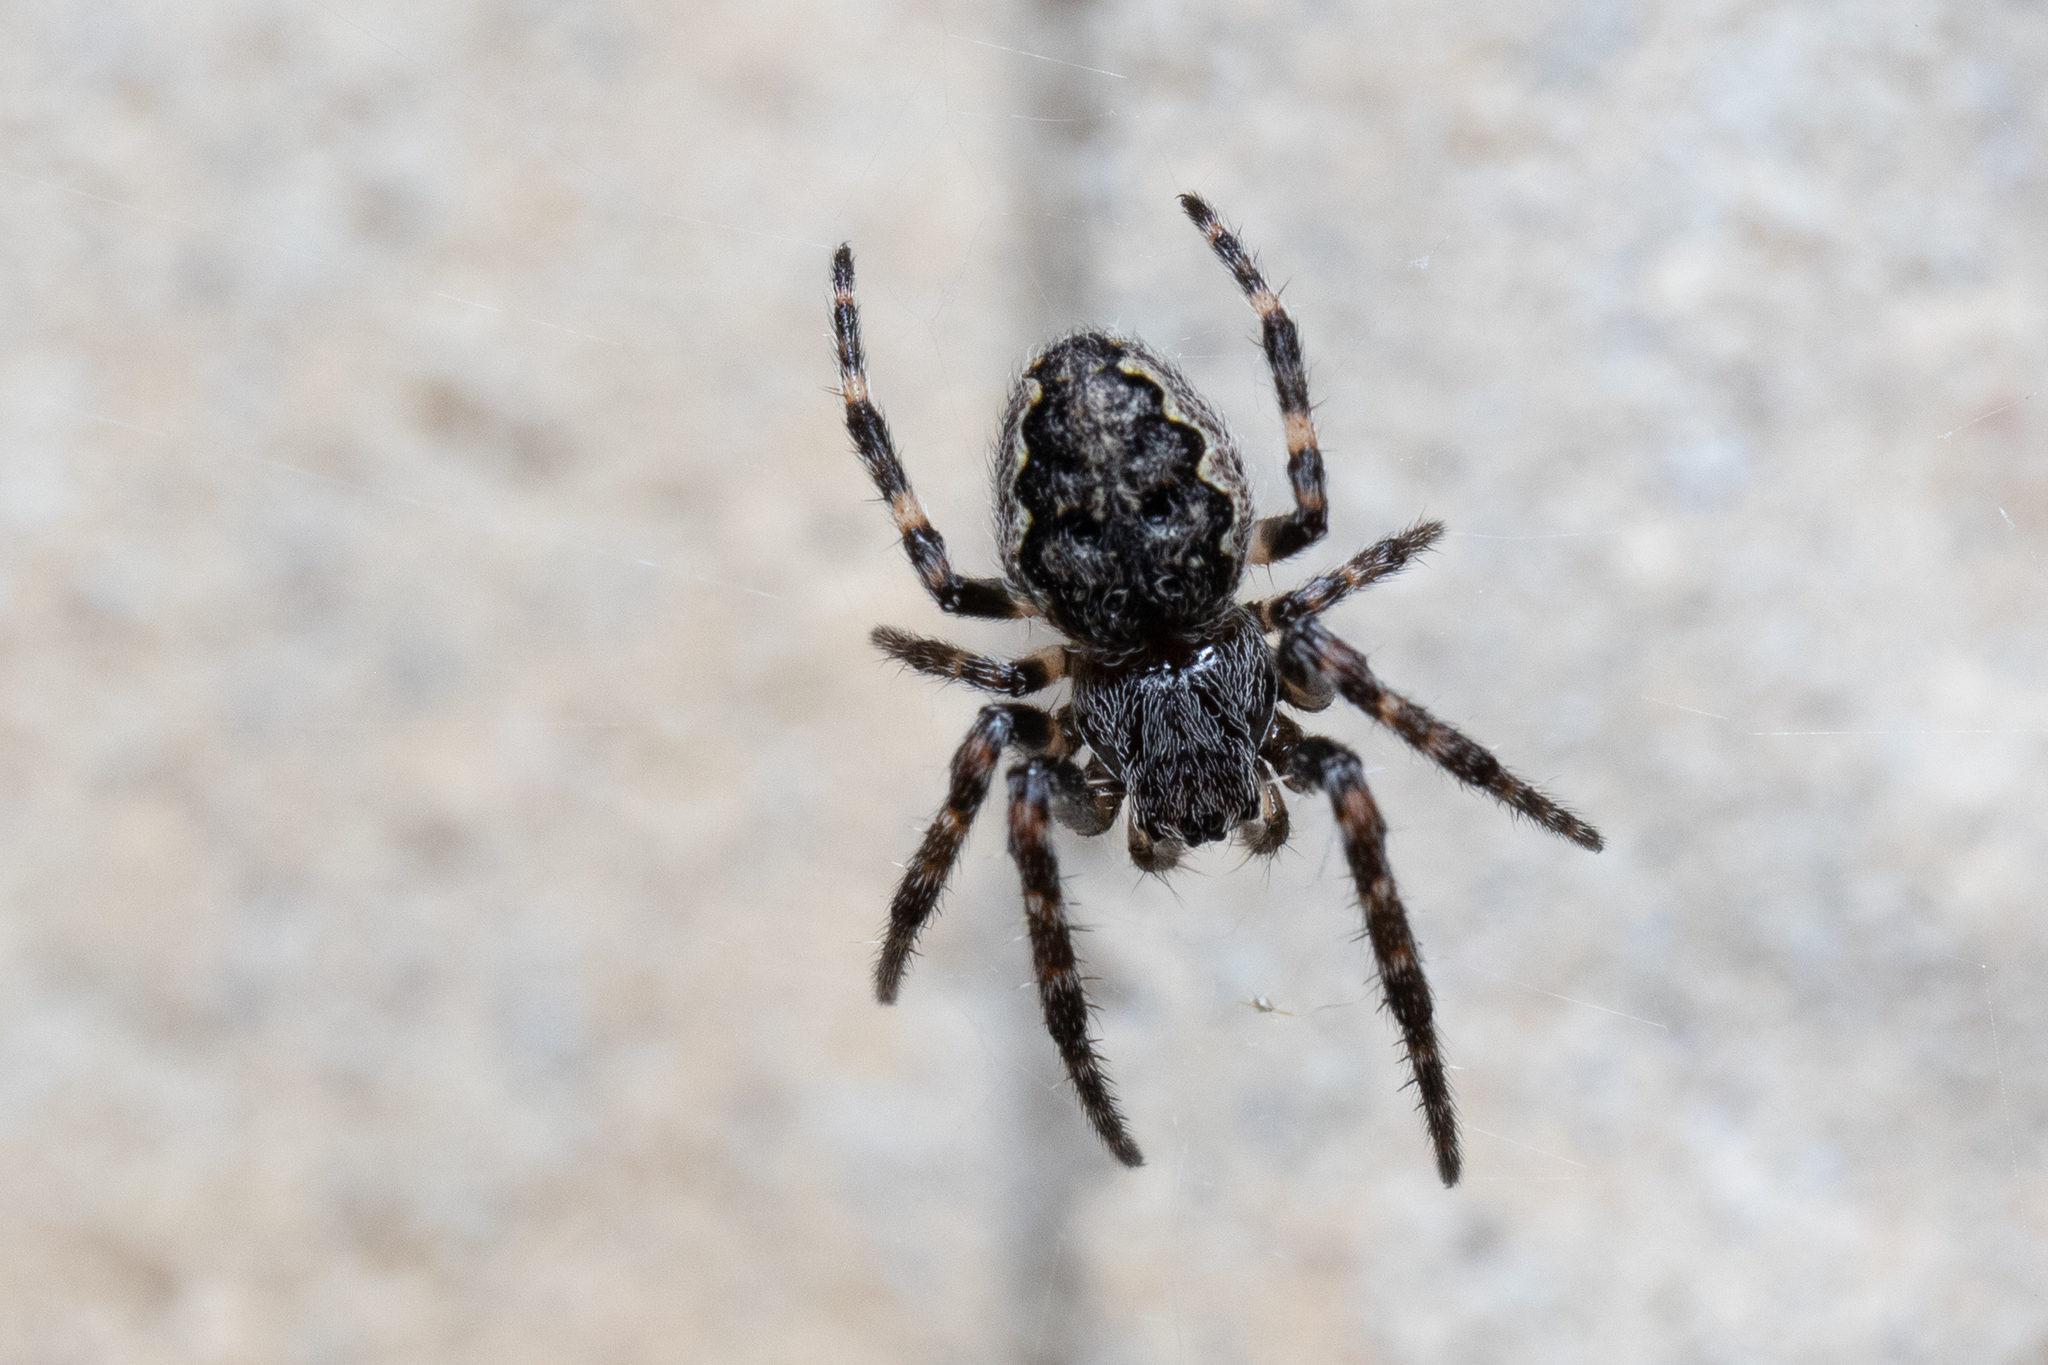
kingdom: Animalia
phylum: Arthropoda
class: Arachnida
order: Araneae
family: Araneidae
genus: Nuctenea
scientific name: Nuctenea umbratica
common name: Toad spider
